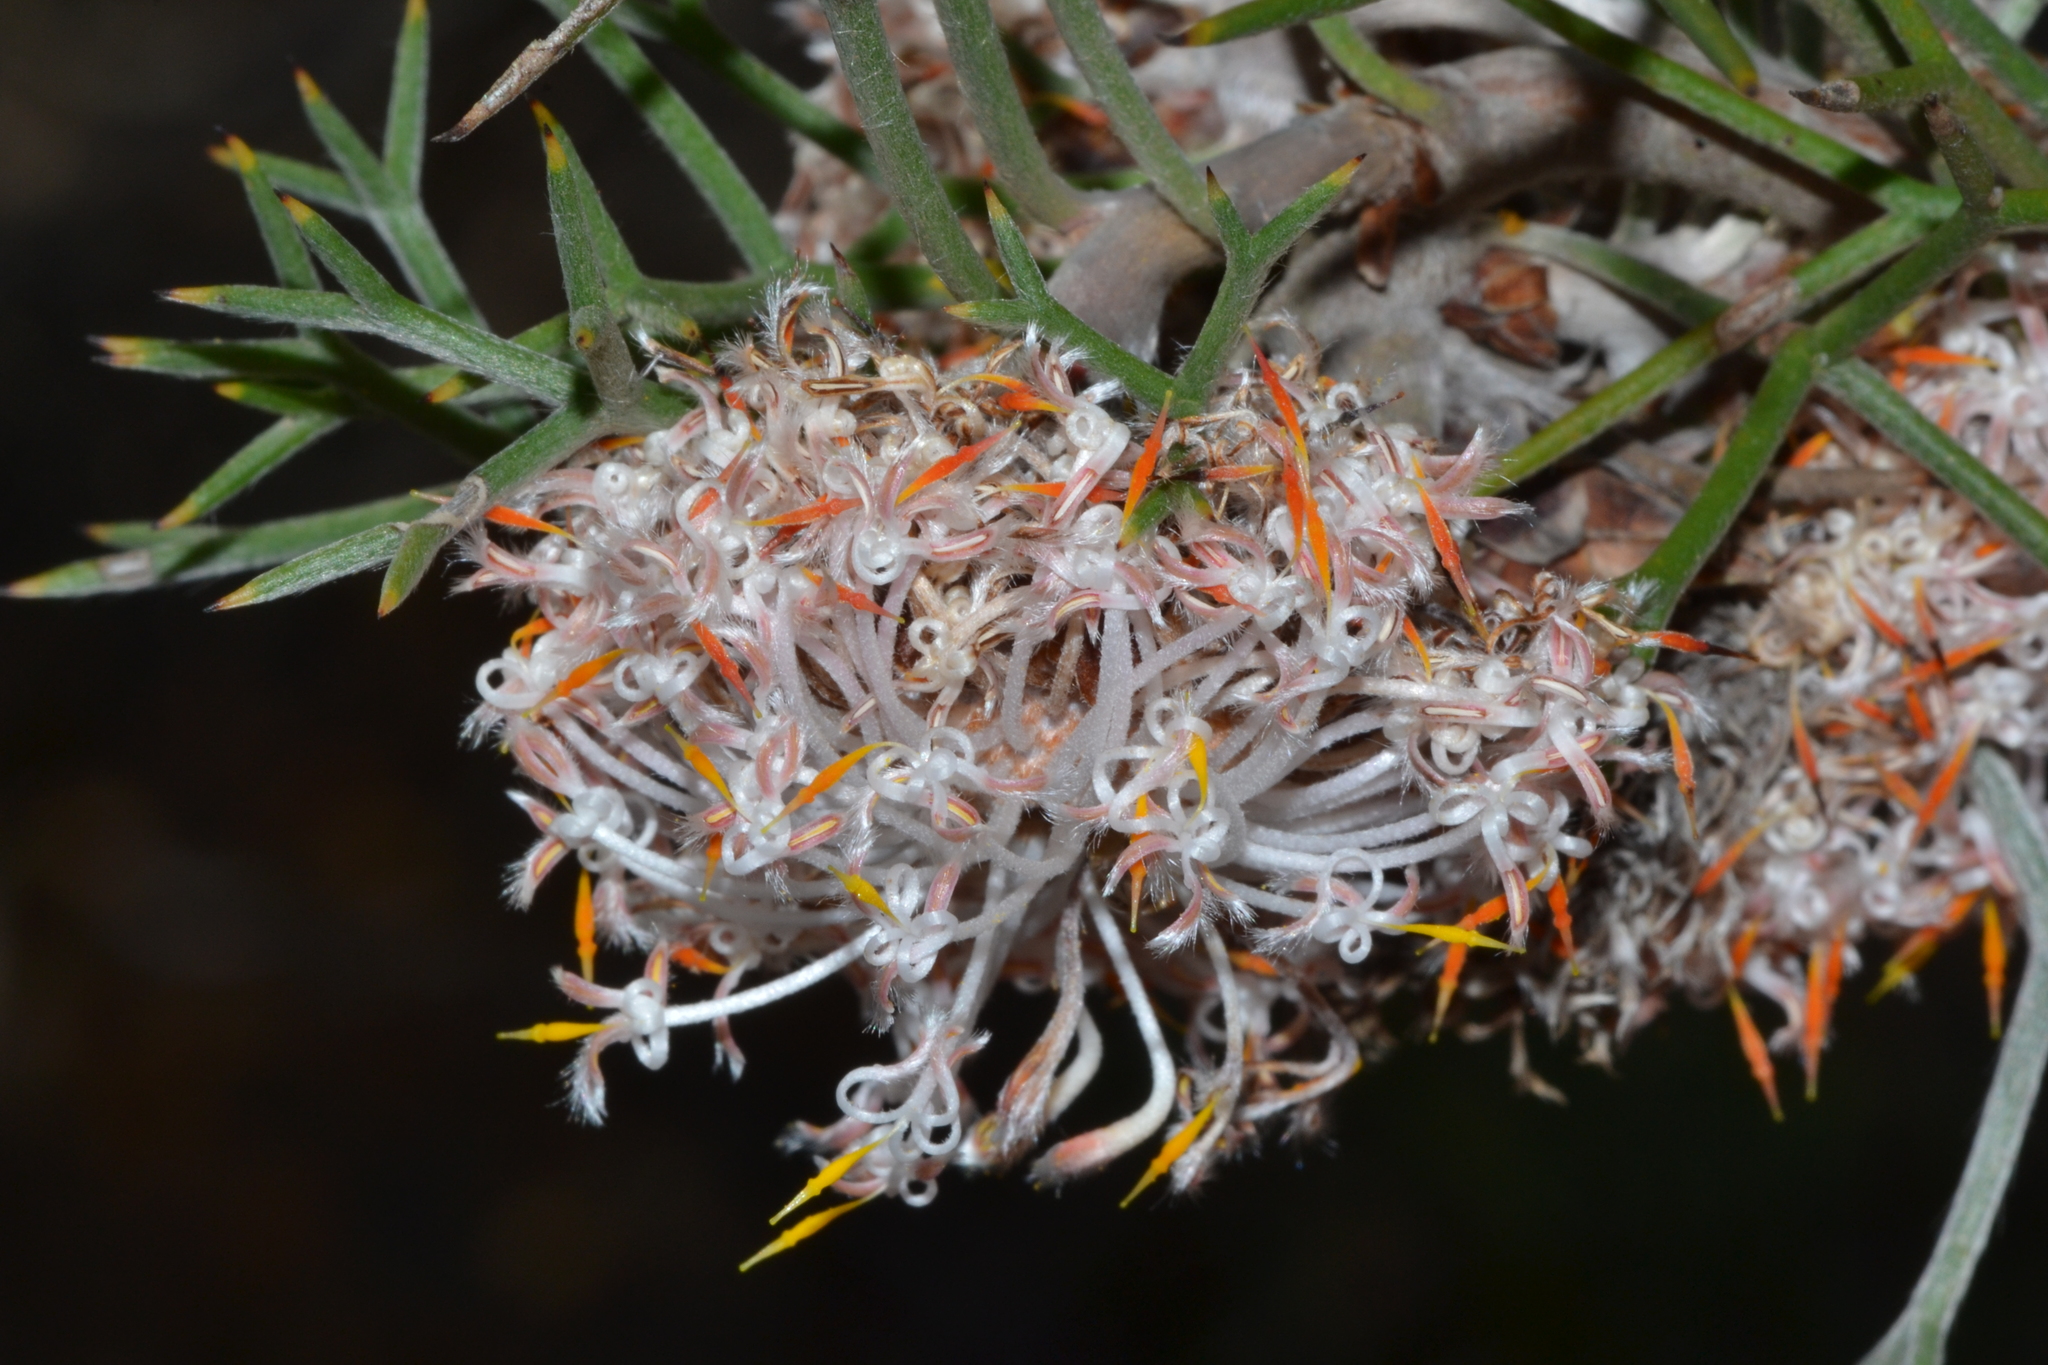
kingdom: Plantae
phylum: Tracheophyta
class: Magnoliopsida
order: Proteales
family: Proteaceae
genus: Isopogon
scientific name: Isopogon teretifolius
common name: Nodding coneflower
